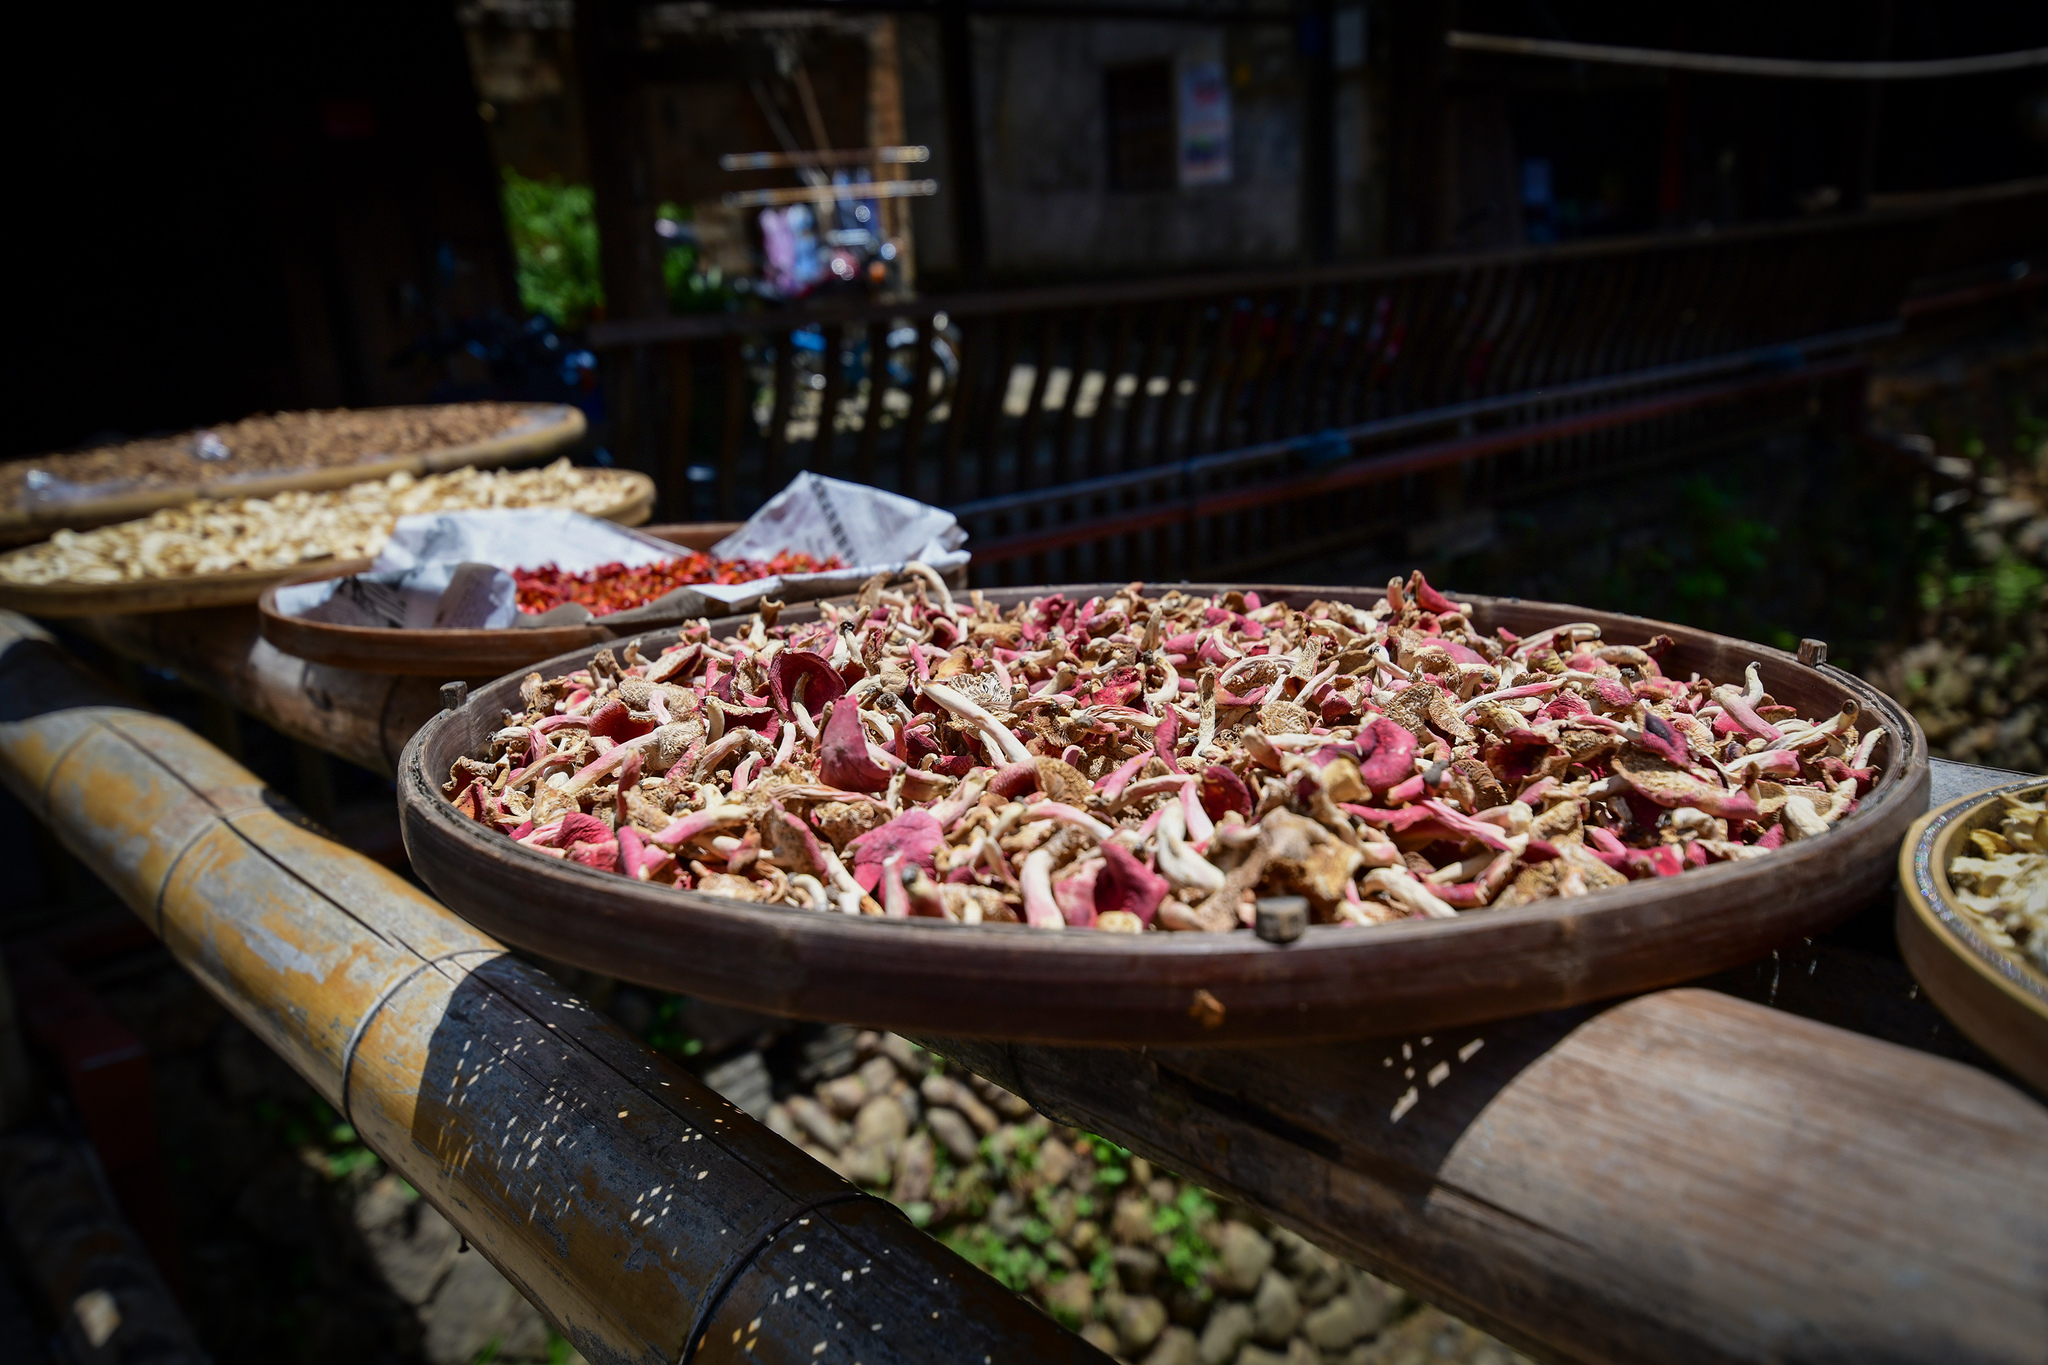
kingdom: Fungi
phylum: Basidiomycota
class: Agaricomycetes
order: Russulales
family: Russulaceae
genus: Russula
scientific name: Russula griseocarnosa
